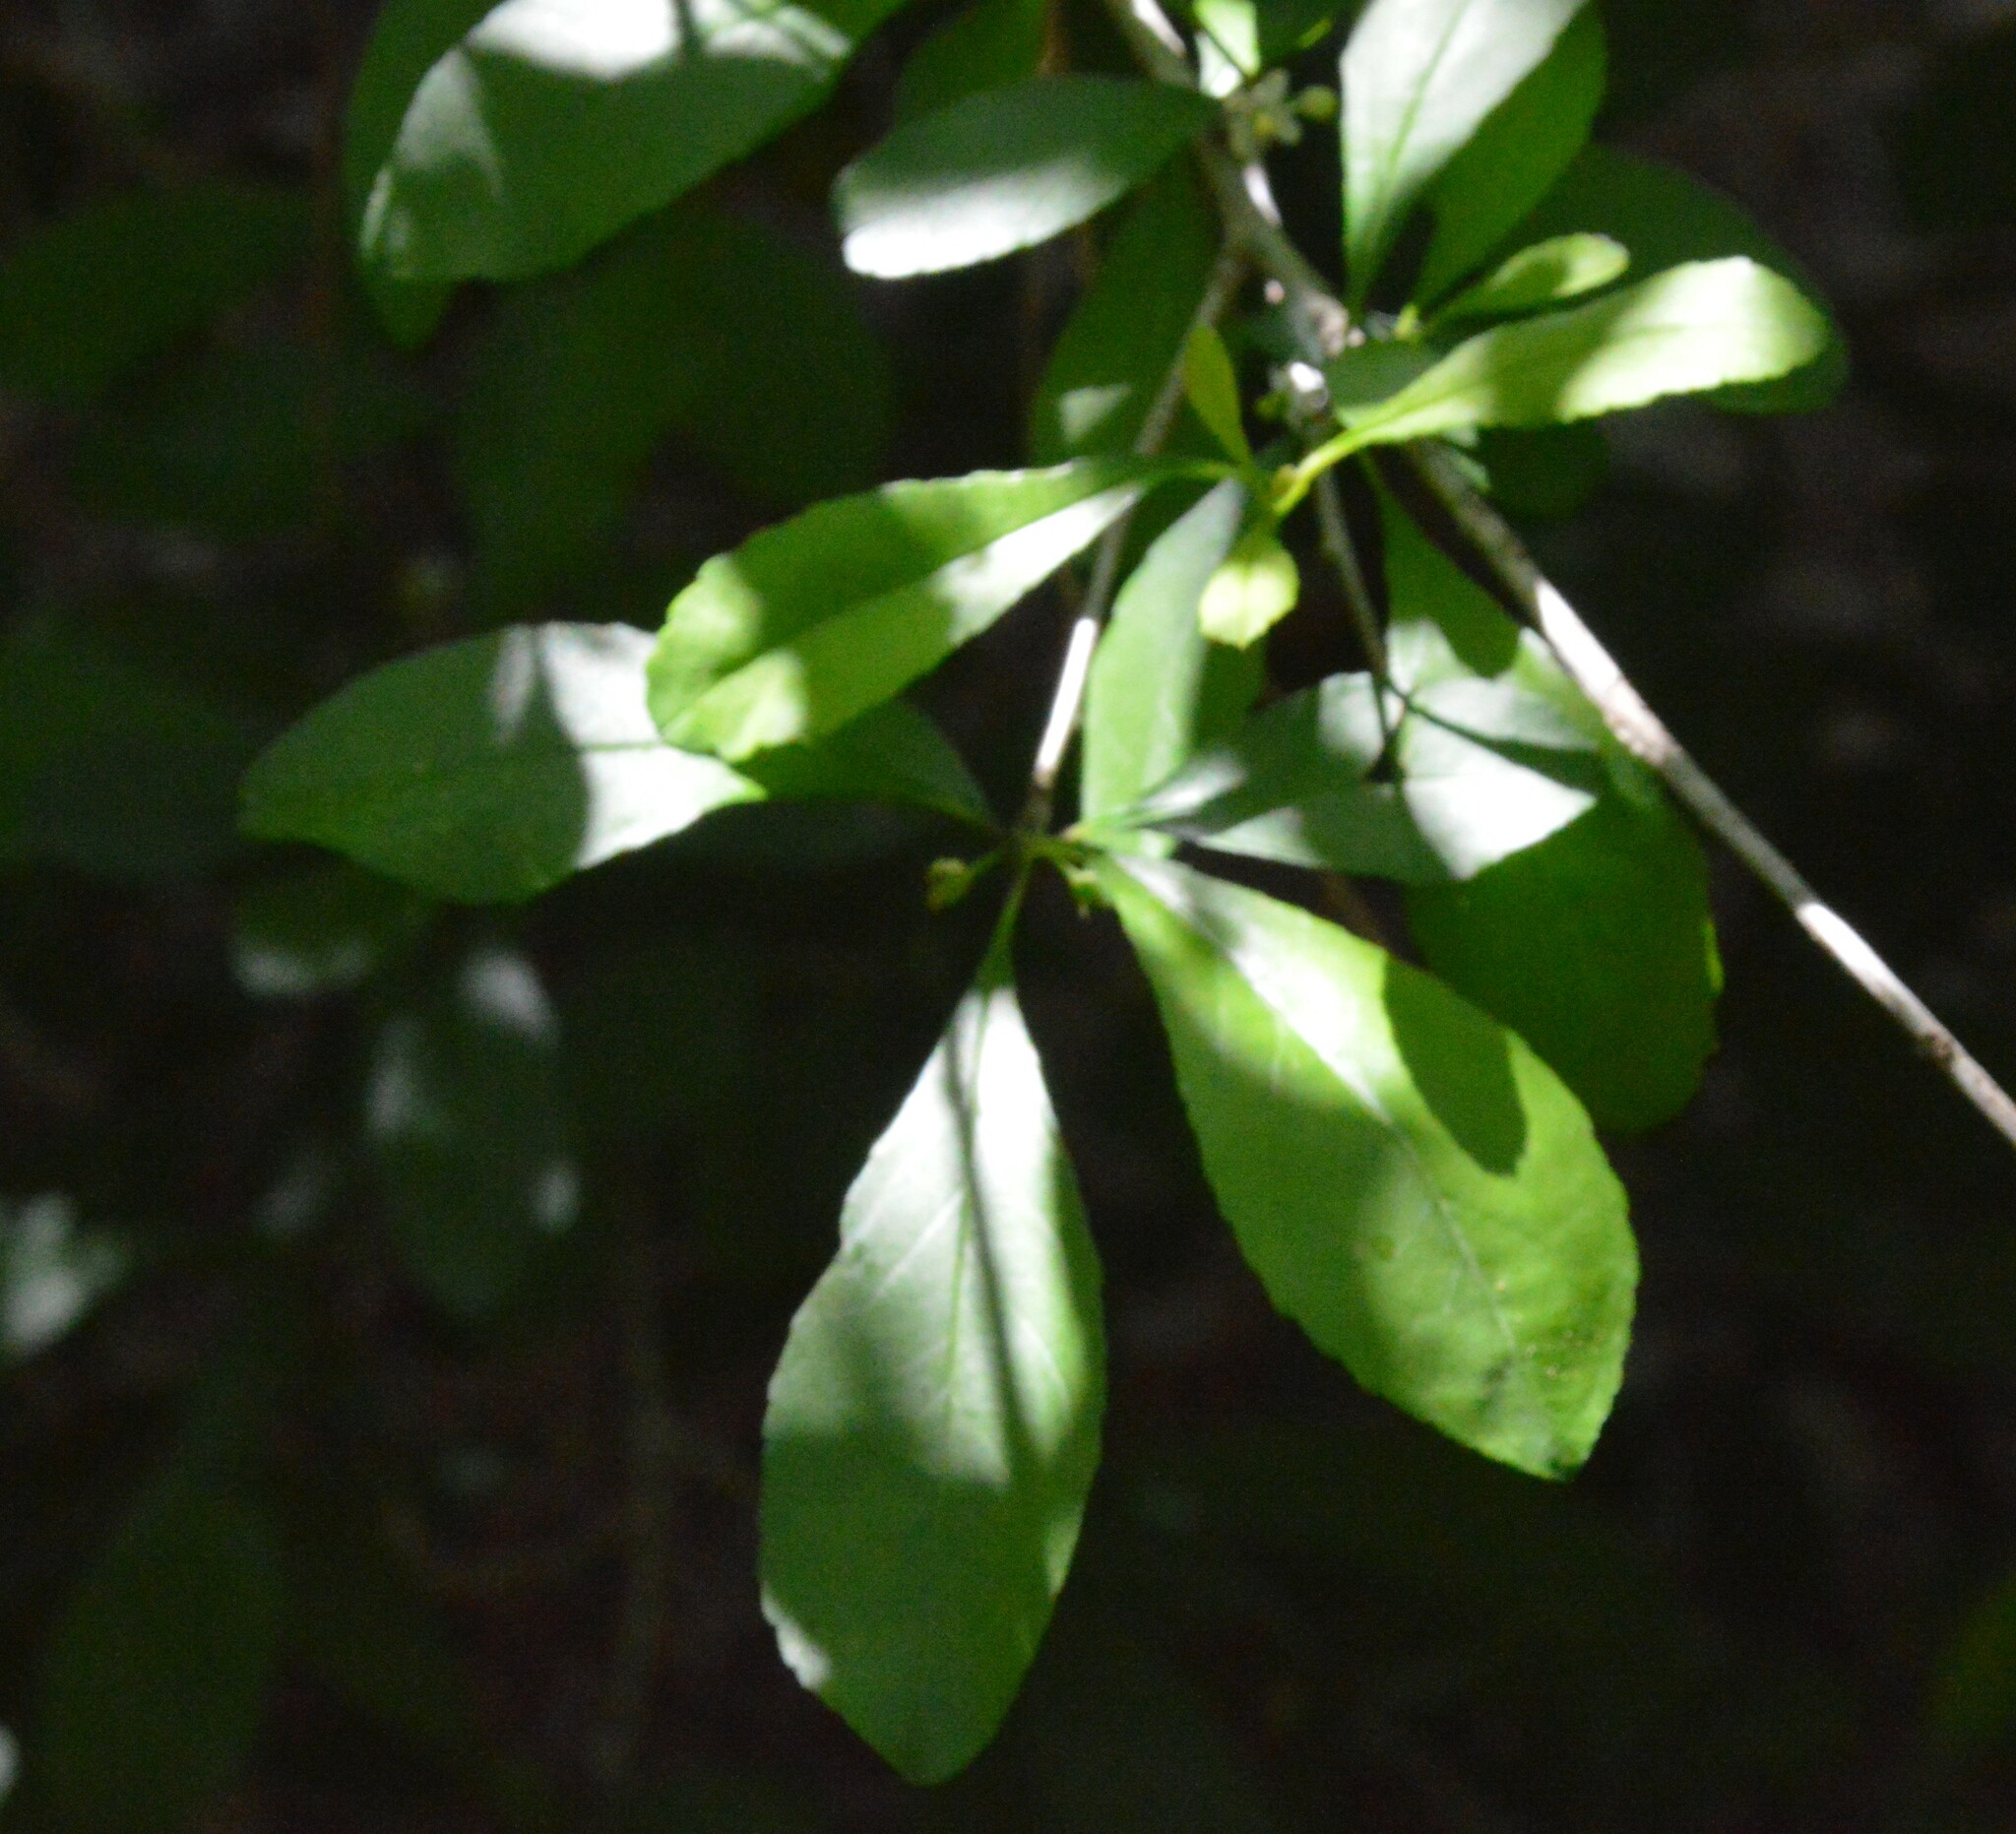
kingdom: Plantae
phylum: Tracheophyta
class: Magnoliopsida
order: Aquifoliales
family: Aquifoliaceae
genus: Ilex
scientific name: Ilex decidua
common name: Possum-haw
